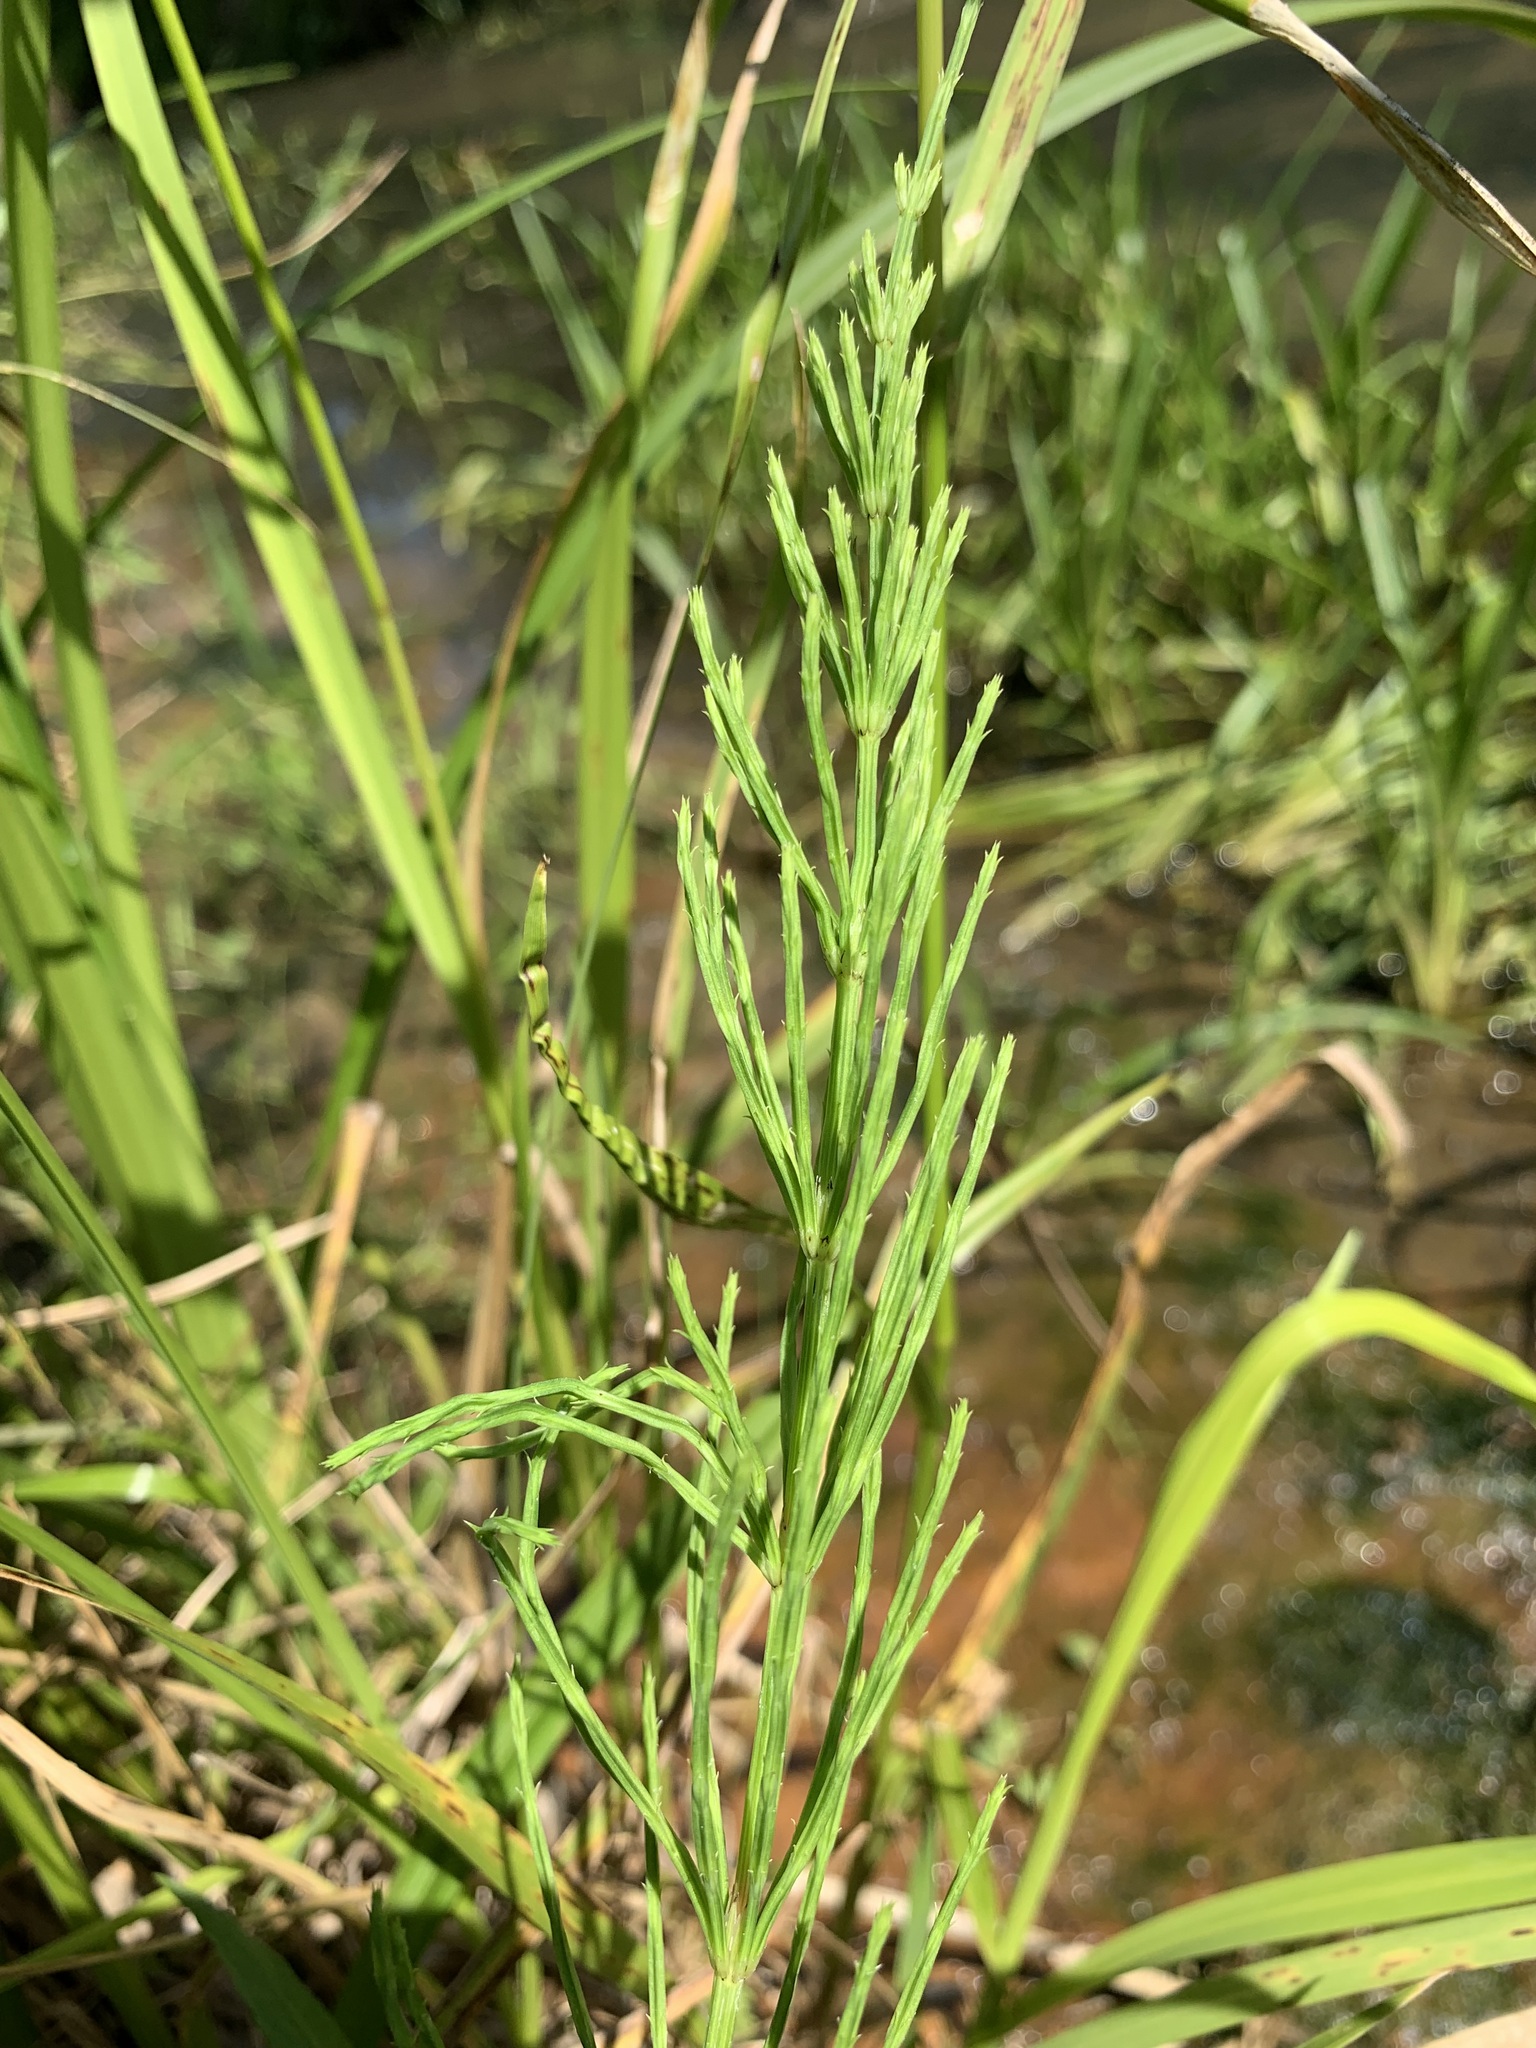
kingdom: Plantae
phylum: Tracheophyta
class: Polypodiopsida
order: Equisetales
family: Equisetaceae
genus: Equisetum
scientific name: Equisetum arvense
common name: Field horsetail
